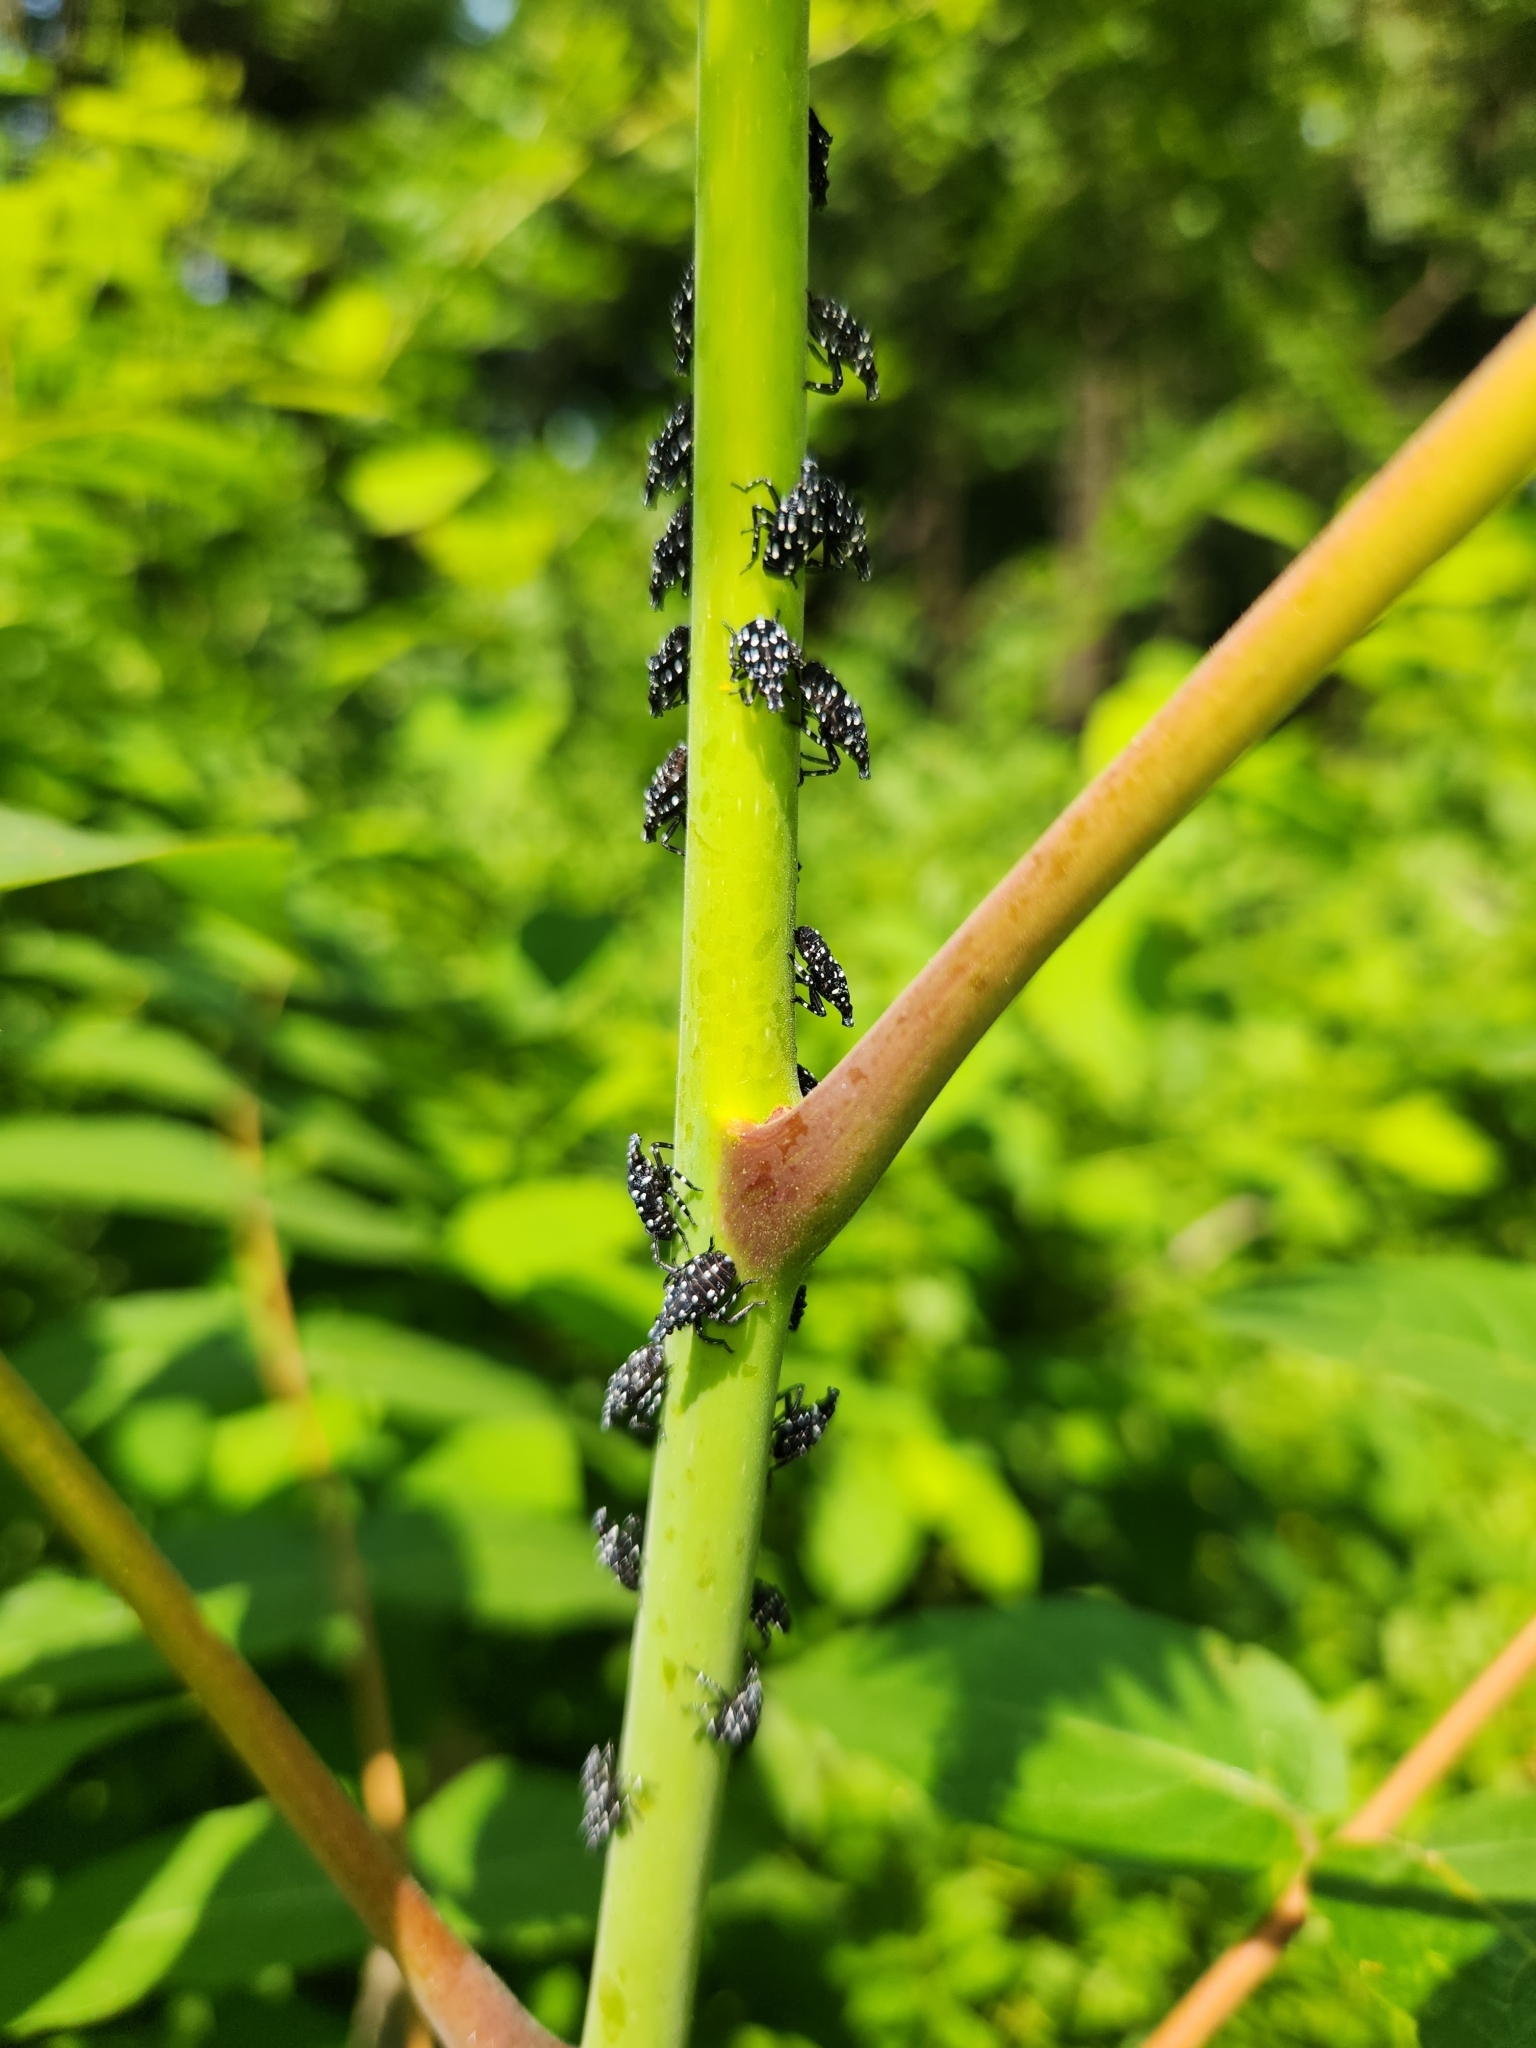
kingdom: Animalia
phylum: Arthropoda
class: Insecta
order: Hemiptera
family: Fulgoridae
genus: Lycorma
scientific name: Lycorma delicatula
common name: Spotted lanternfly
